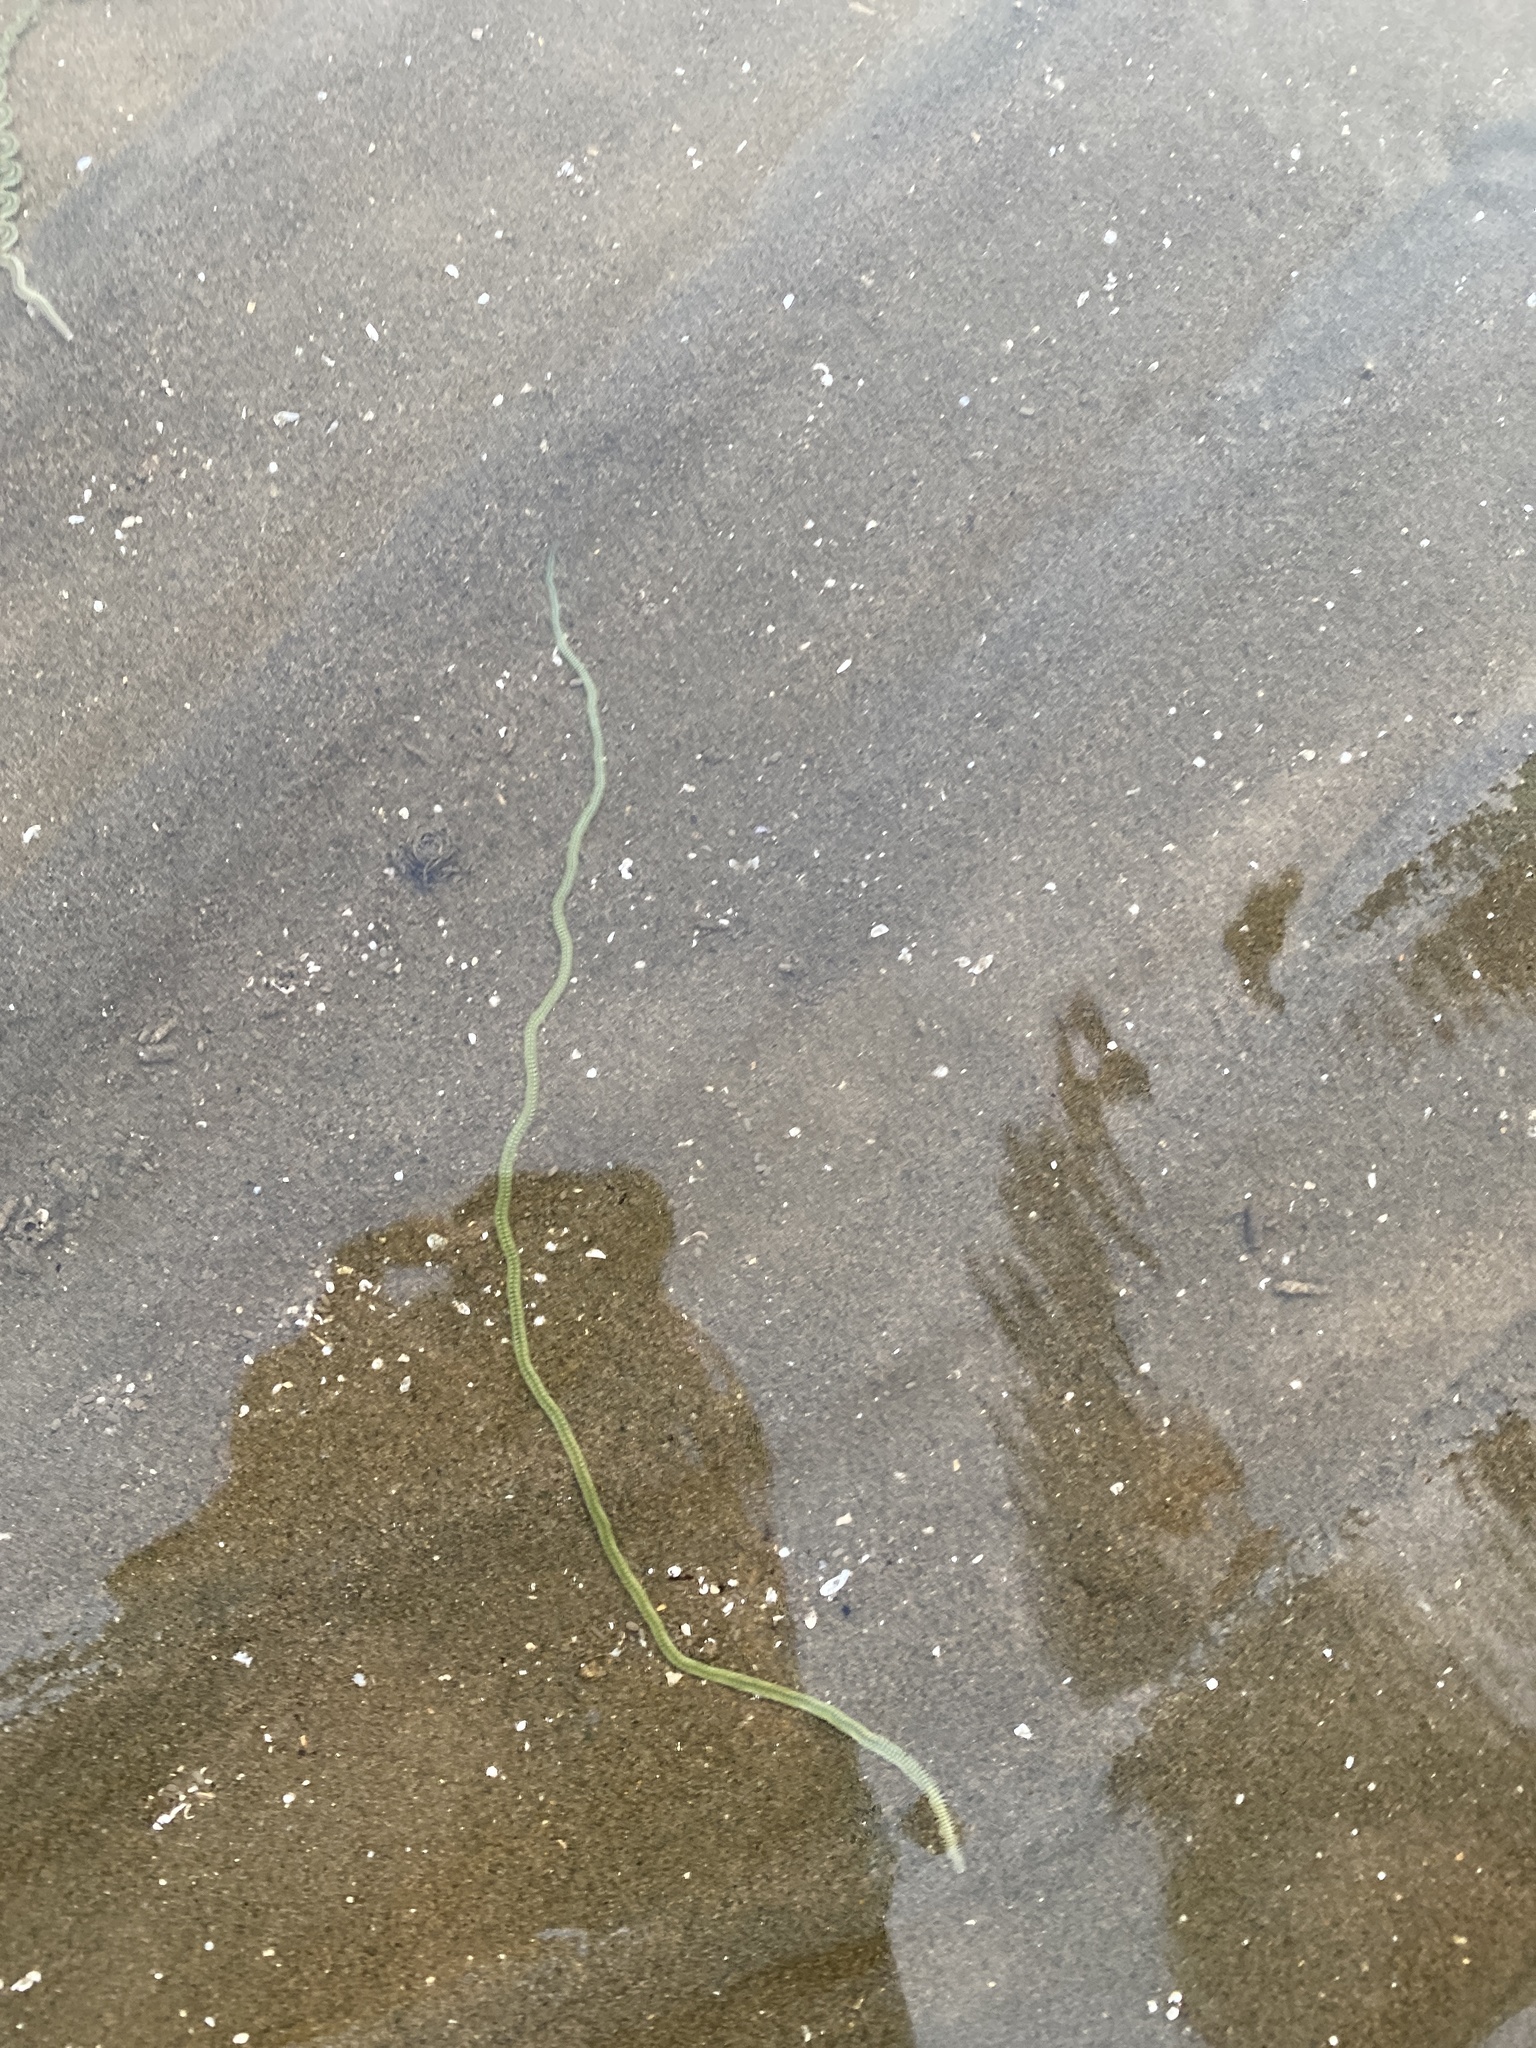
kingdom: Animalia
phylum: Annelida
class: Polychaeta
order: Phyllodocida
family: Phyllodocidae
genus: Phyllodoce
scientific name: Phyllodoce novaehollandiae
